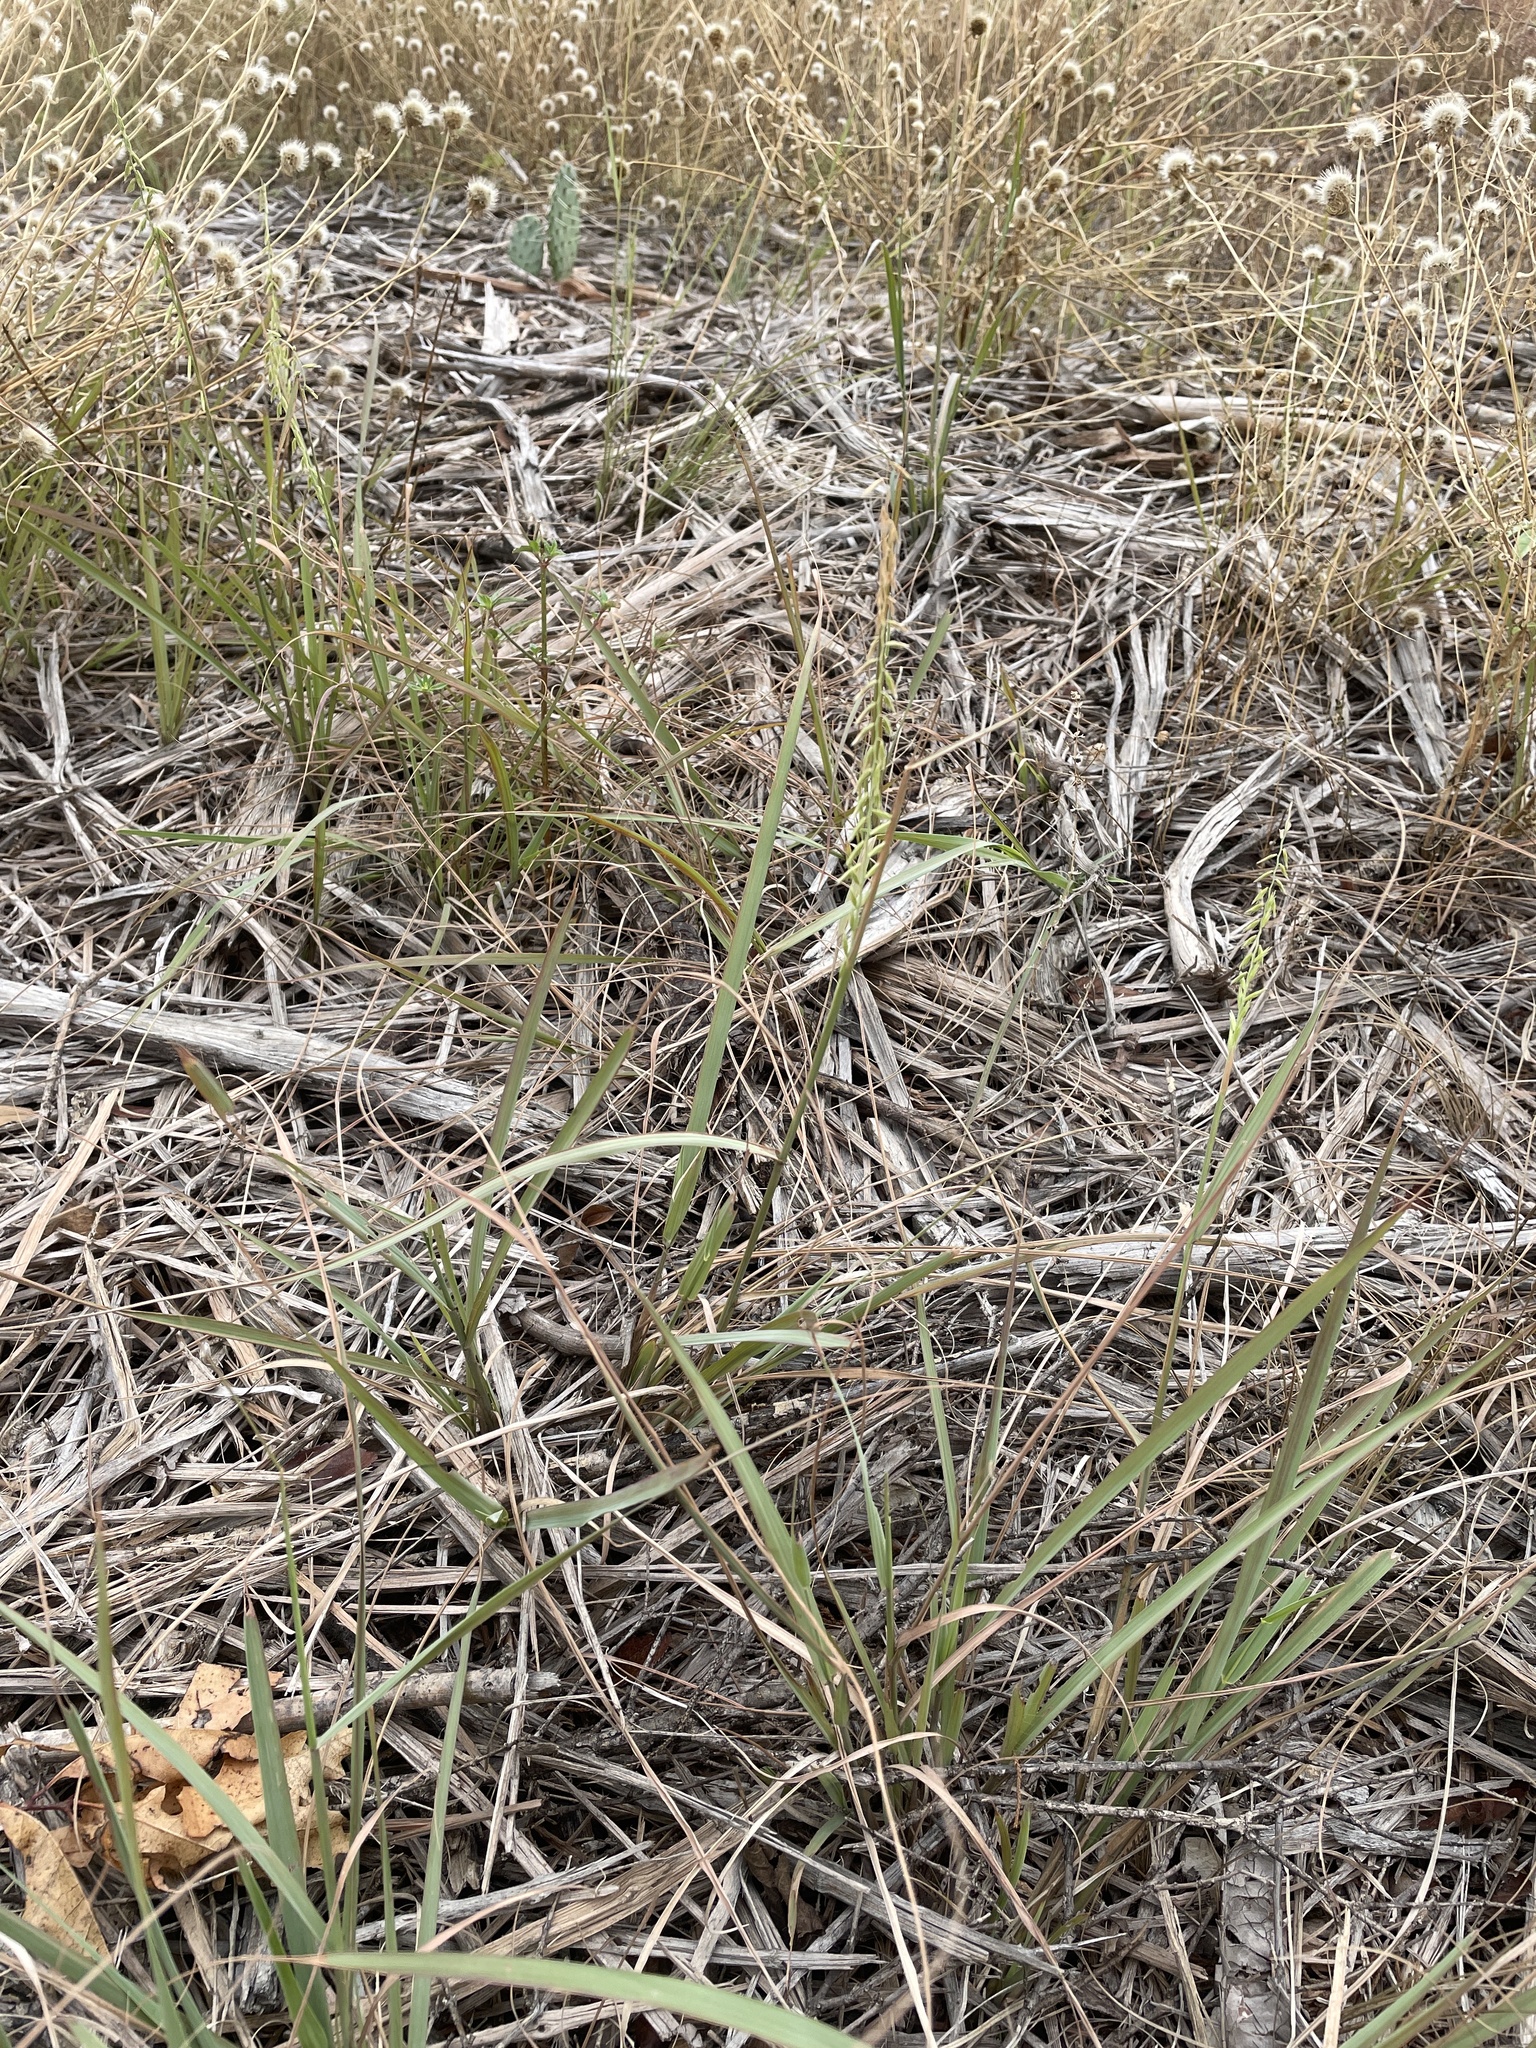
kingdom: Plantae
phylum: Tracheophyta
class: Liliopsida
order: Poales
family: Poaceae
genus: Bouteloua
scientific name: Bouteloua curtipendula
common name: Side-oats grama
